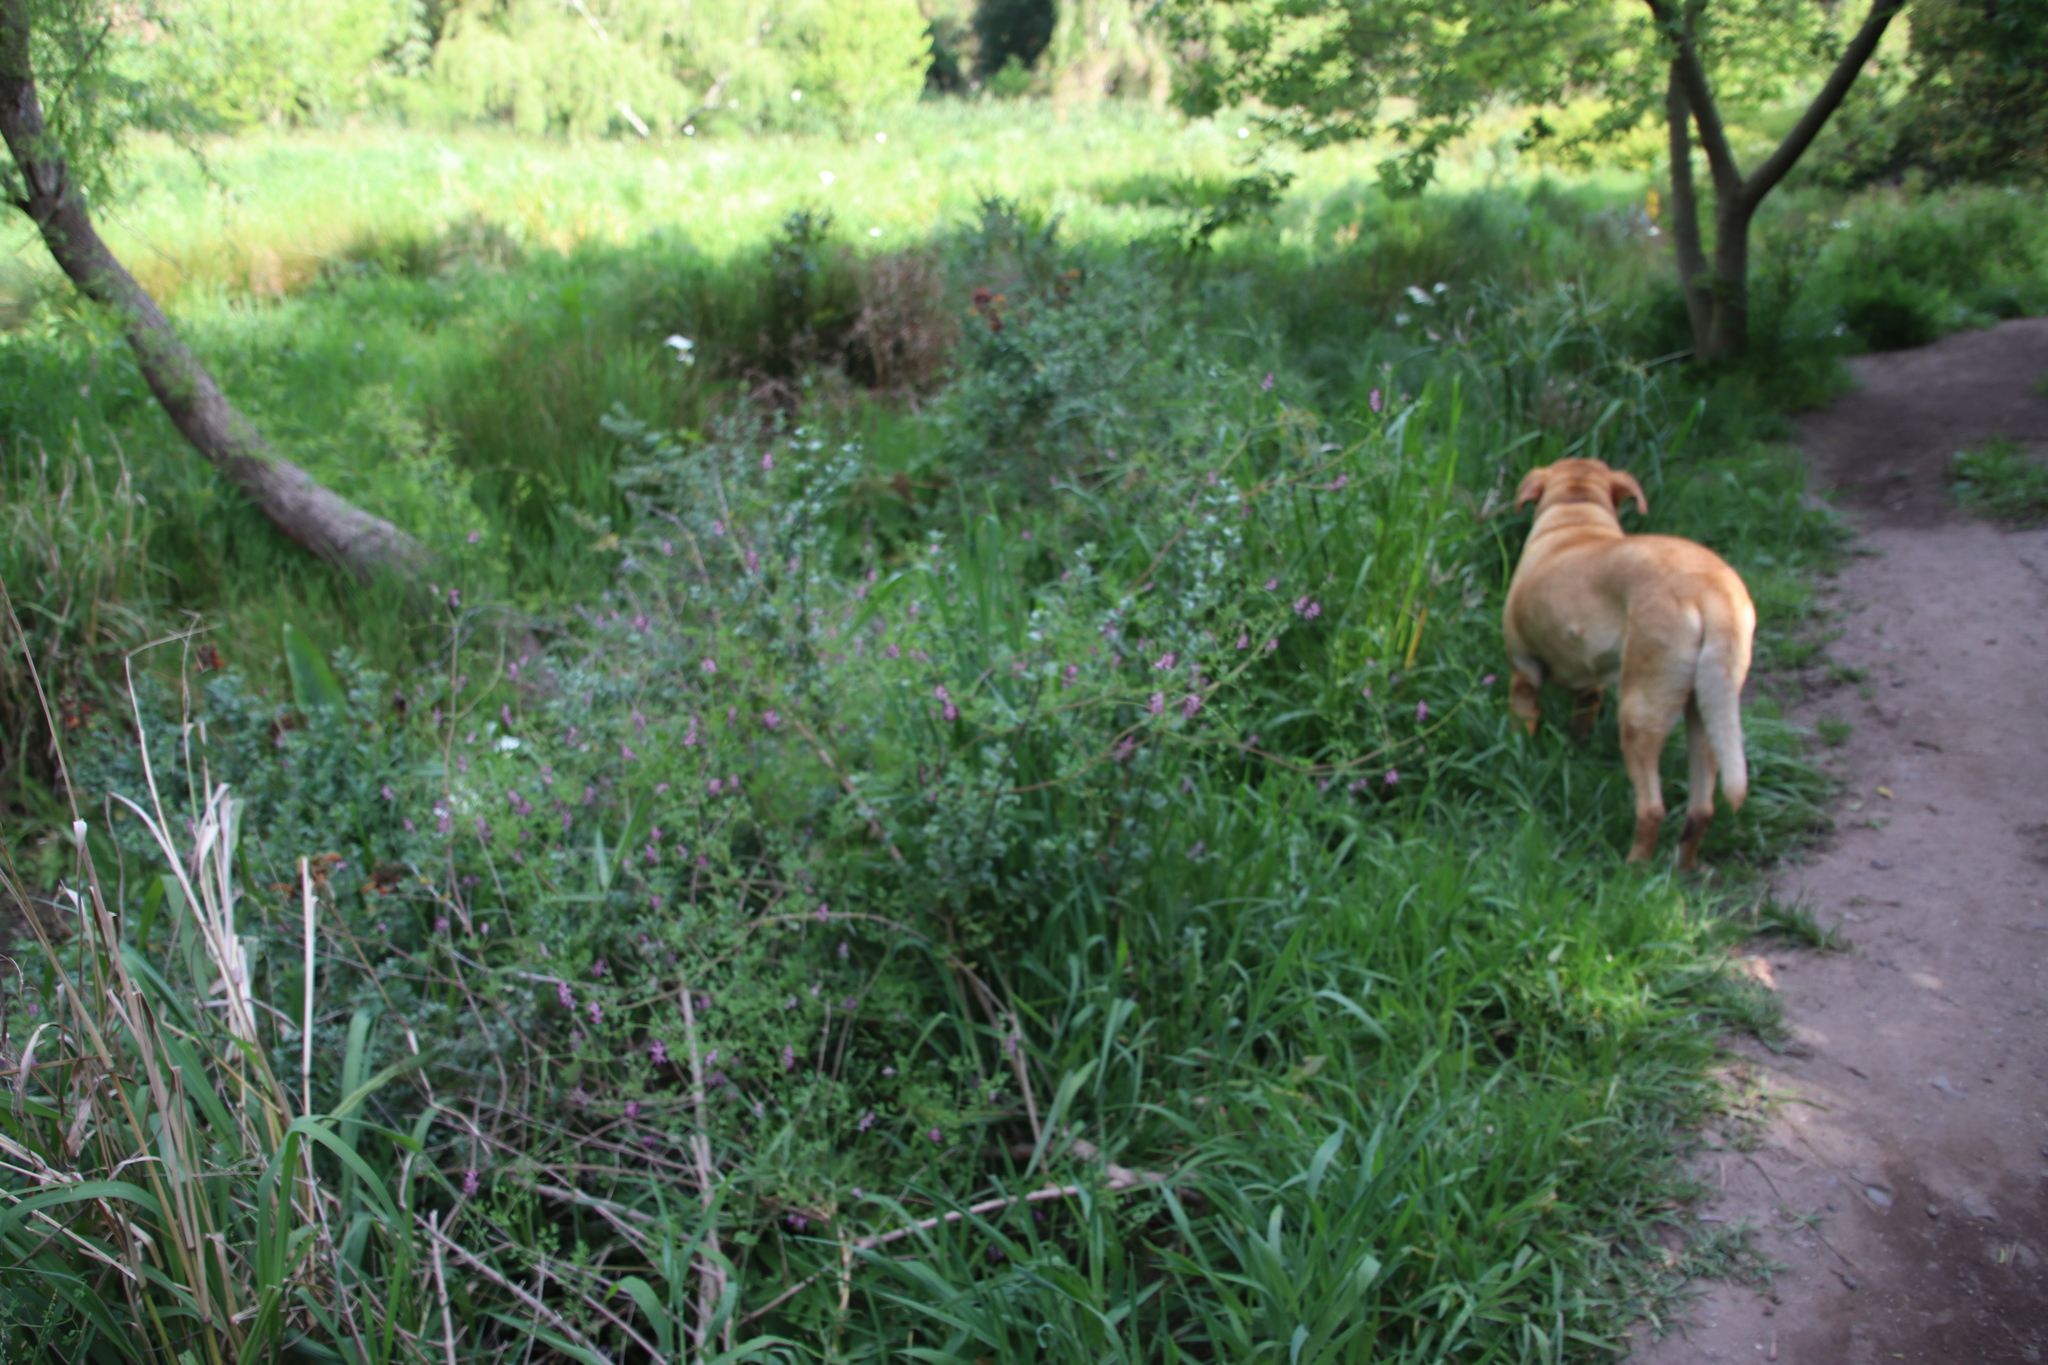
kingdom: Plantae
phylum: Tracheophyta
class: Magnoliopsida
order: Ranunculales
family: Papaveraceae
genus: Fumaria
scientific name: Fumaria muralis
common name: Common ramping-fumitory
